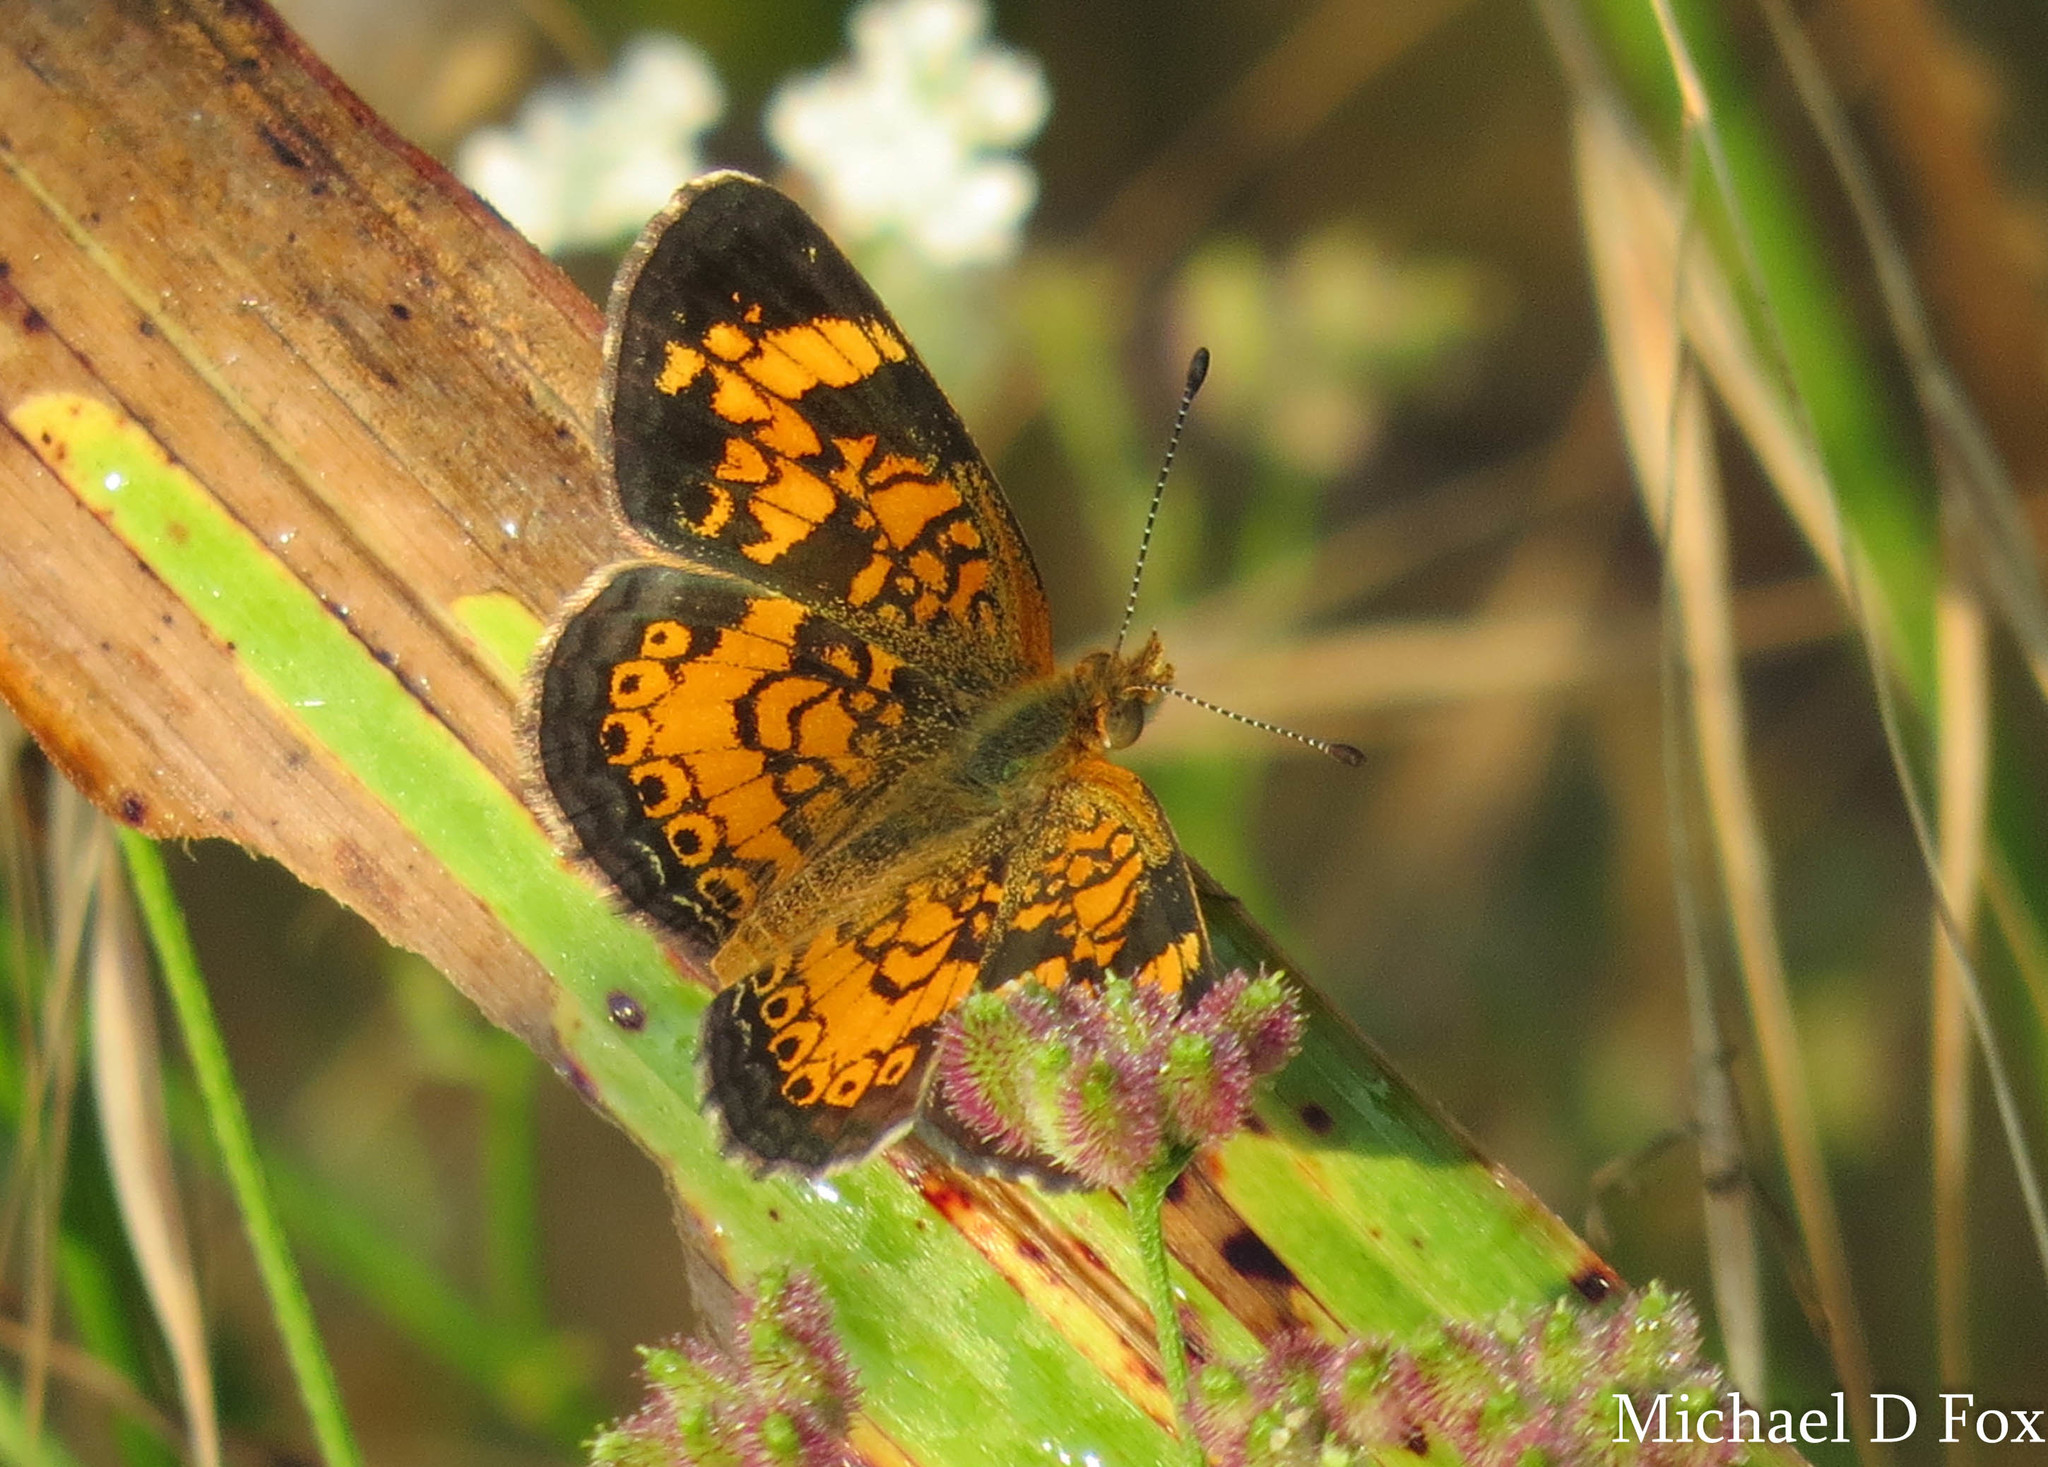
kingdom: Animalia
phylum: Arthropoda
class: Insecta
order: Lepidoptera
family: Nymphalidae
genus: Phyciodes
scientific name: Phyciodes tharos
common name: Pearl crescent
